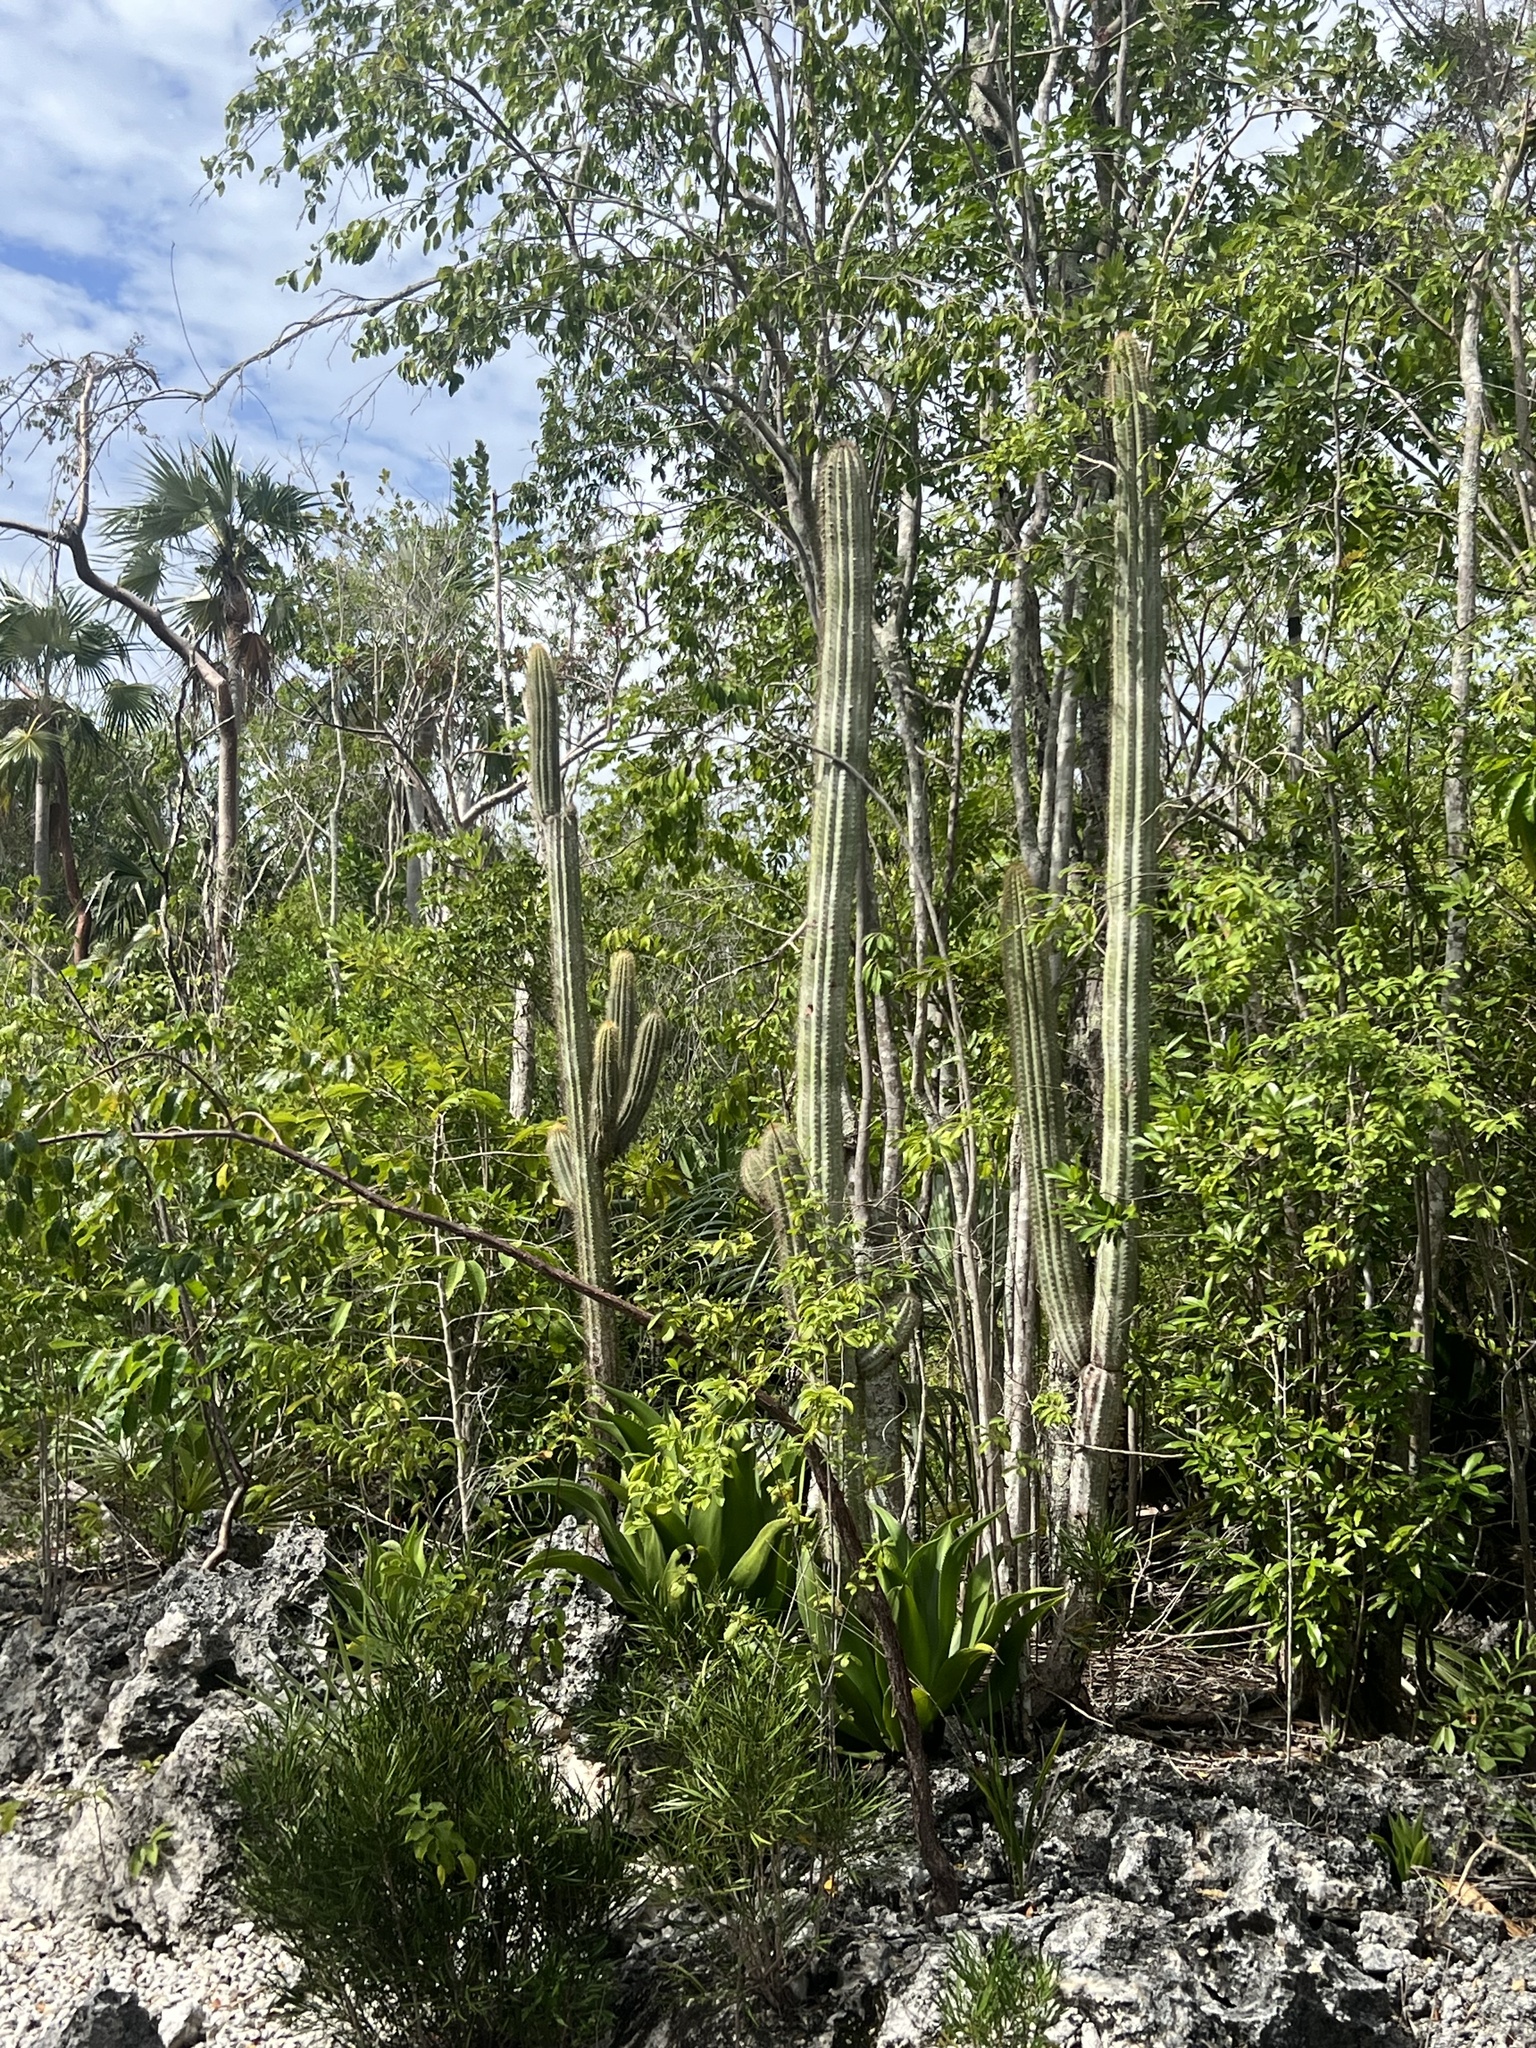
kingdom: Plantae
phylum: Tracheophyta
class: Magnoliopsida
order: Caryophyllales
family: Cactaceae
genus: Pilosocereus
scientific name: Pilosocereus jamaicensis
